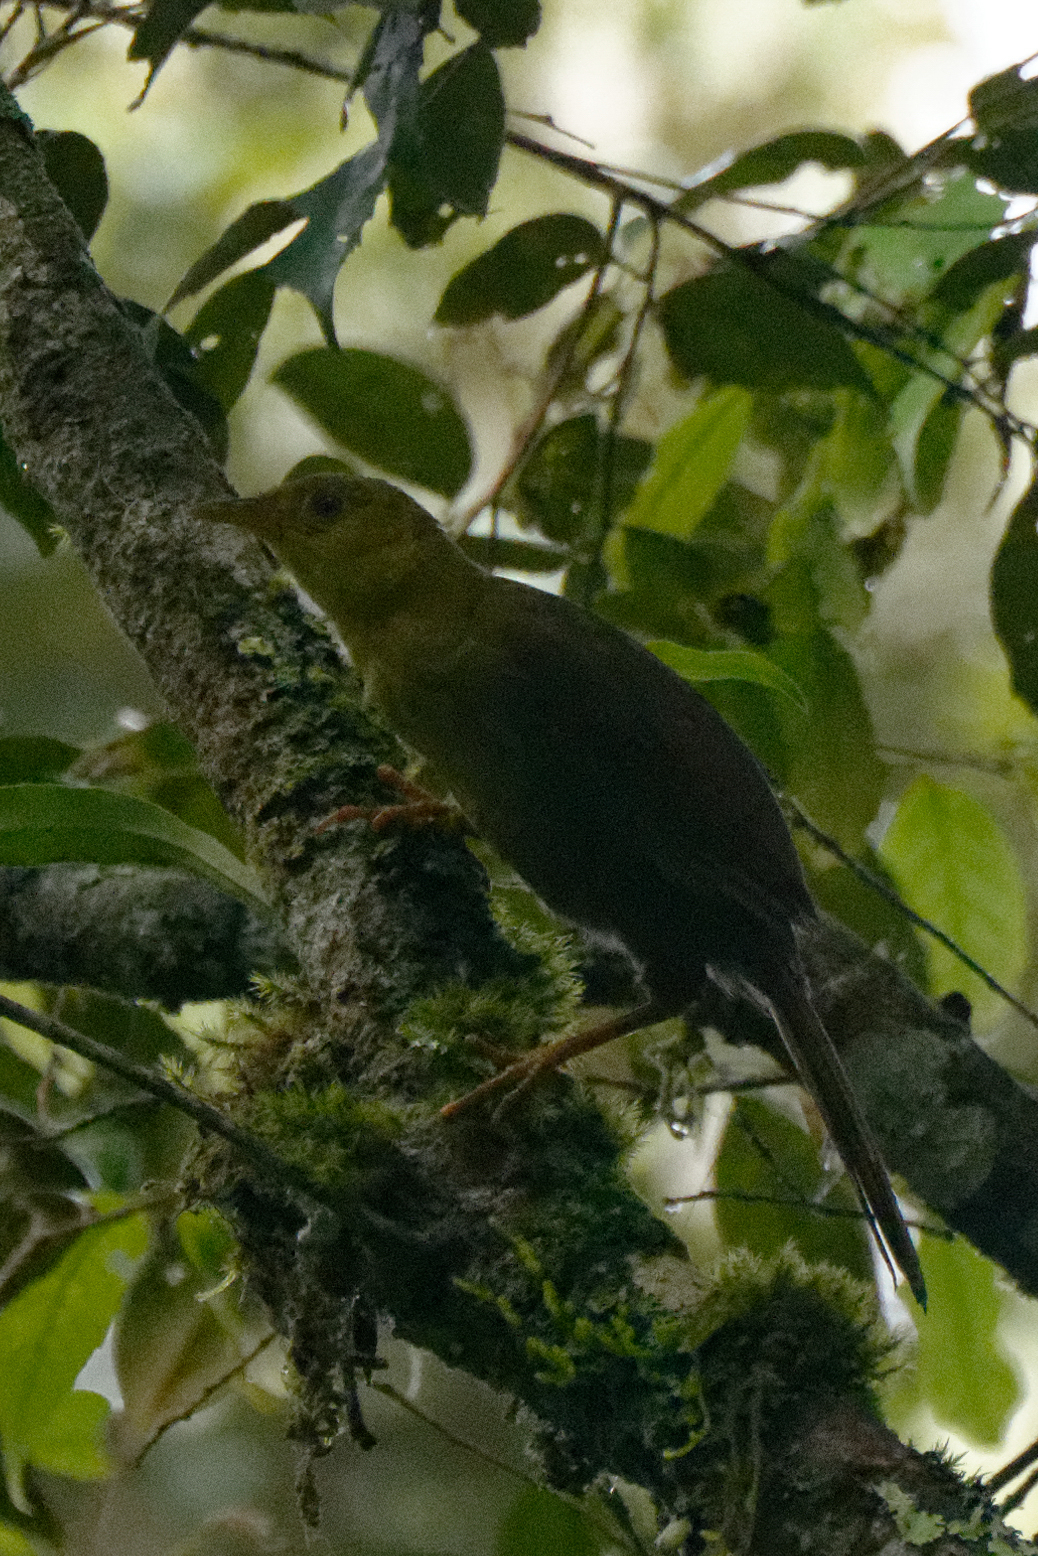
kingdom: Animalia
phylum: Chordata
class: Aves
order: Passeriformes
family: Pycnonotidae
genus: Malia
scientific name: Malia grata
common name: Malia
